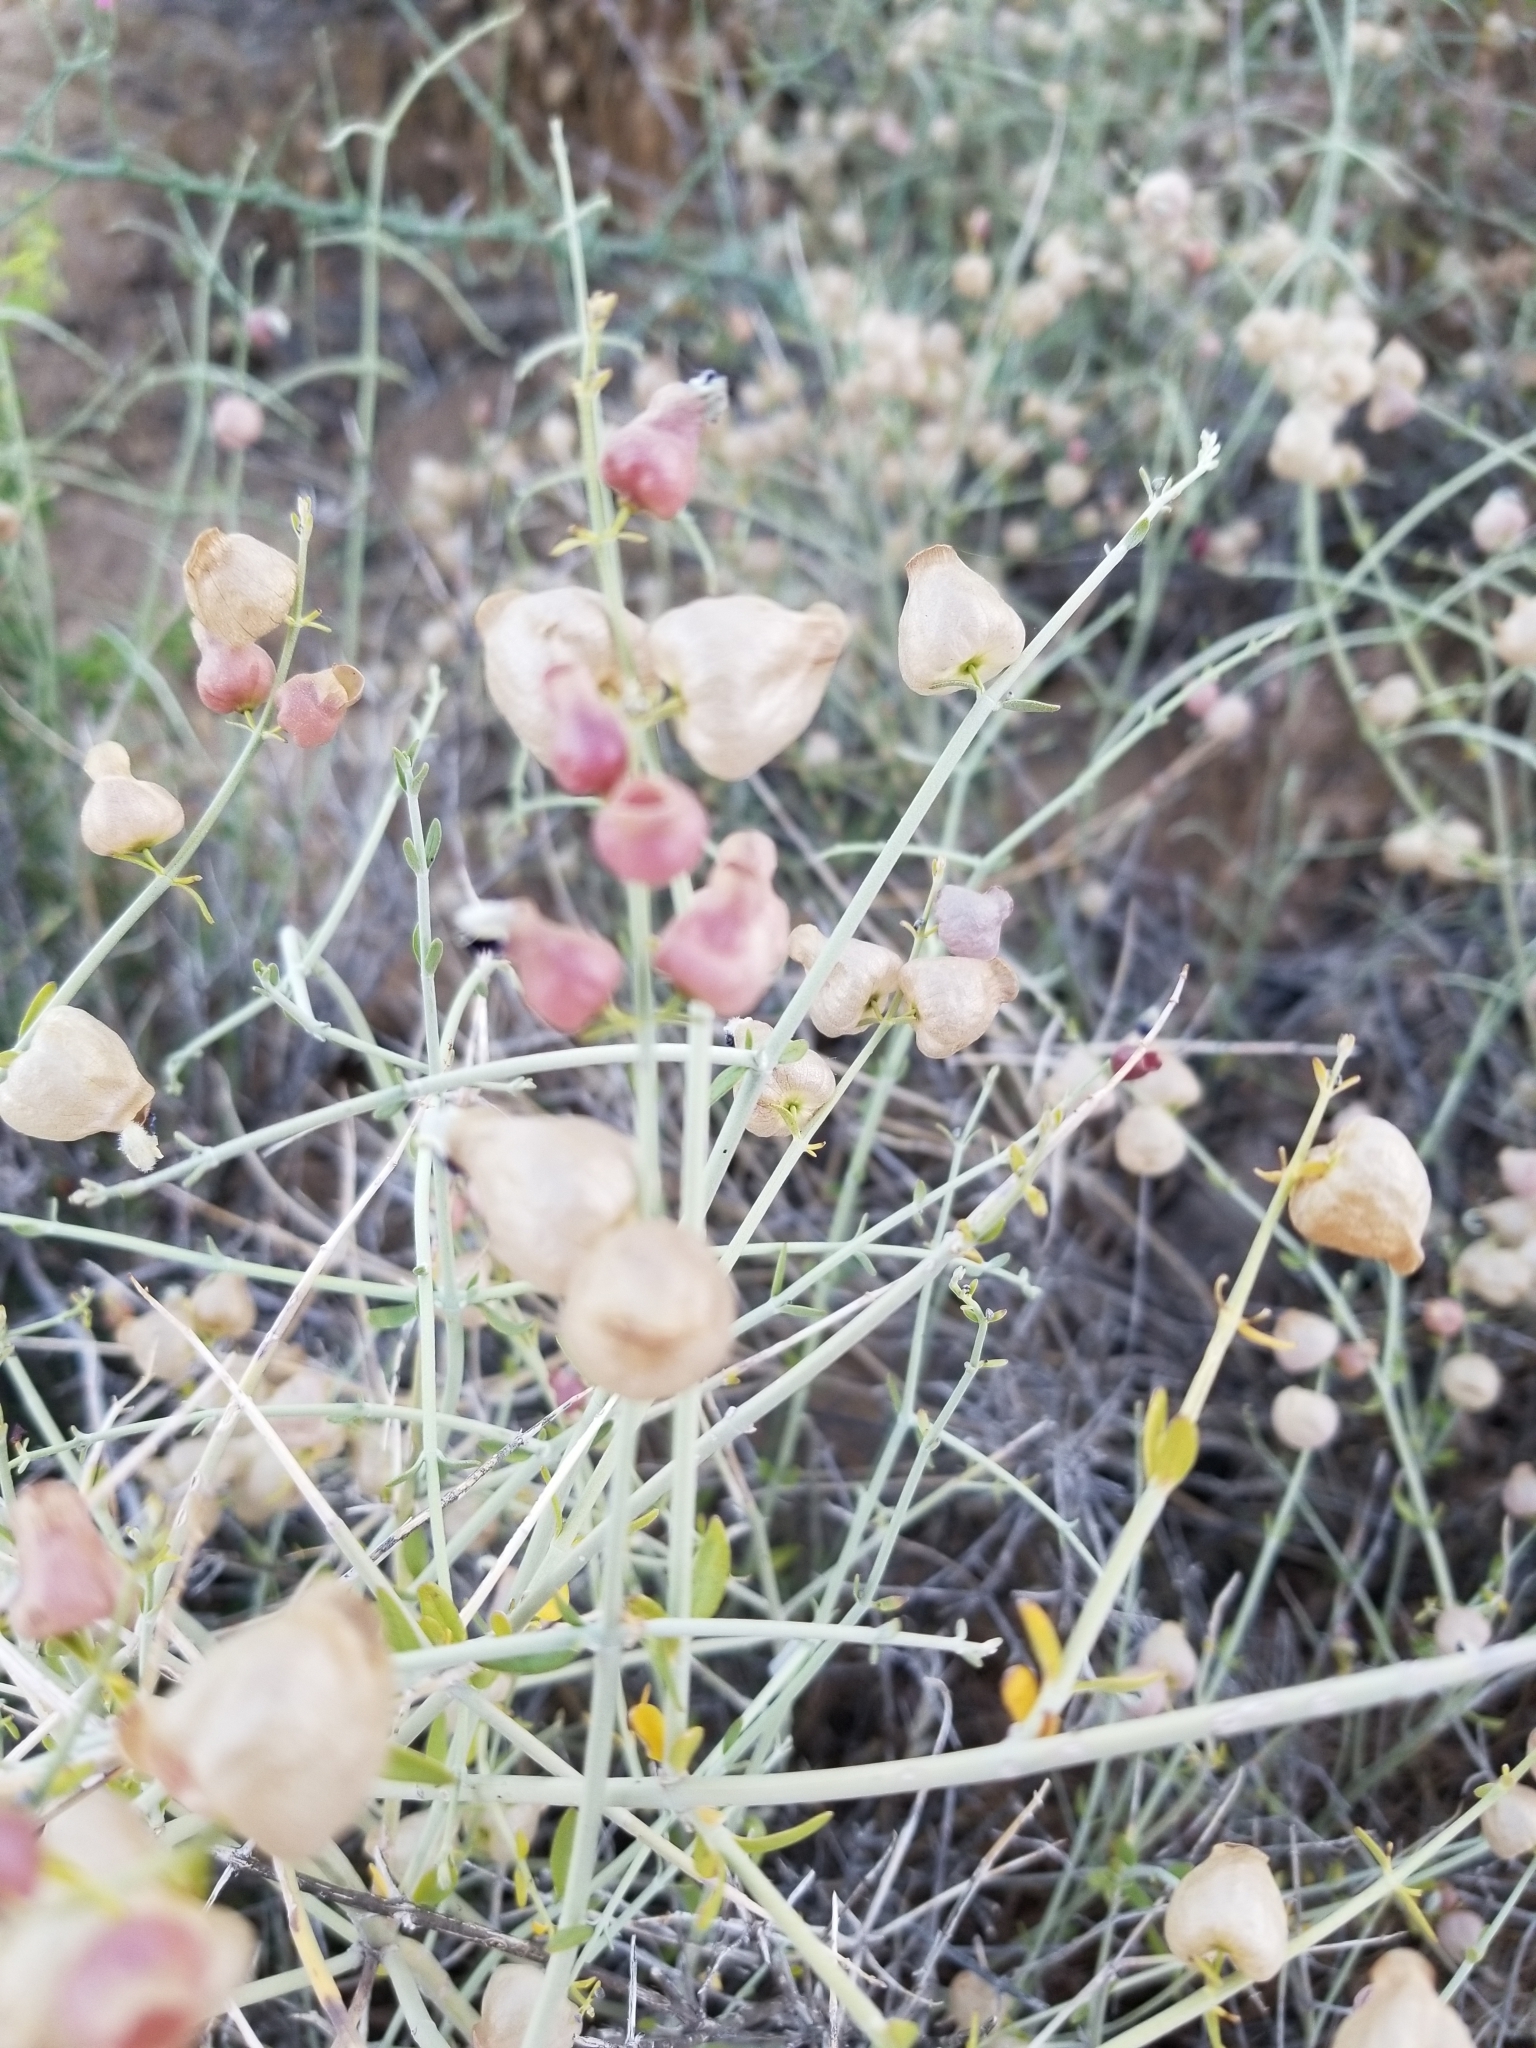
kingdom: Plantae
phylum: Tracheophyta
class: Magnoliopsida
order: Lamiales
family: Lamiaceae
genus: Scutellaria
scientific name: Scutellaria mexicana
